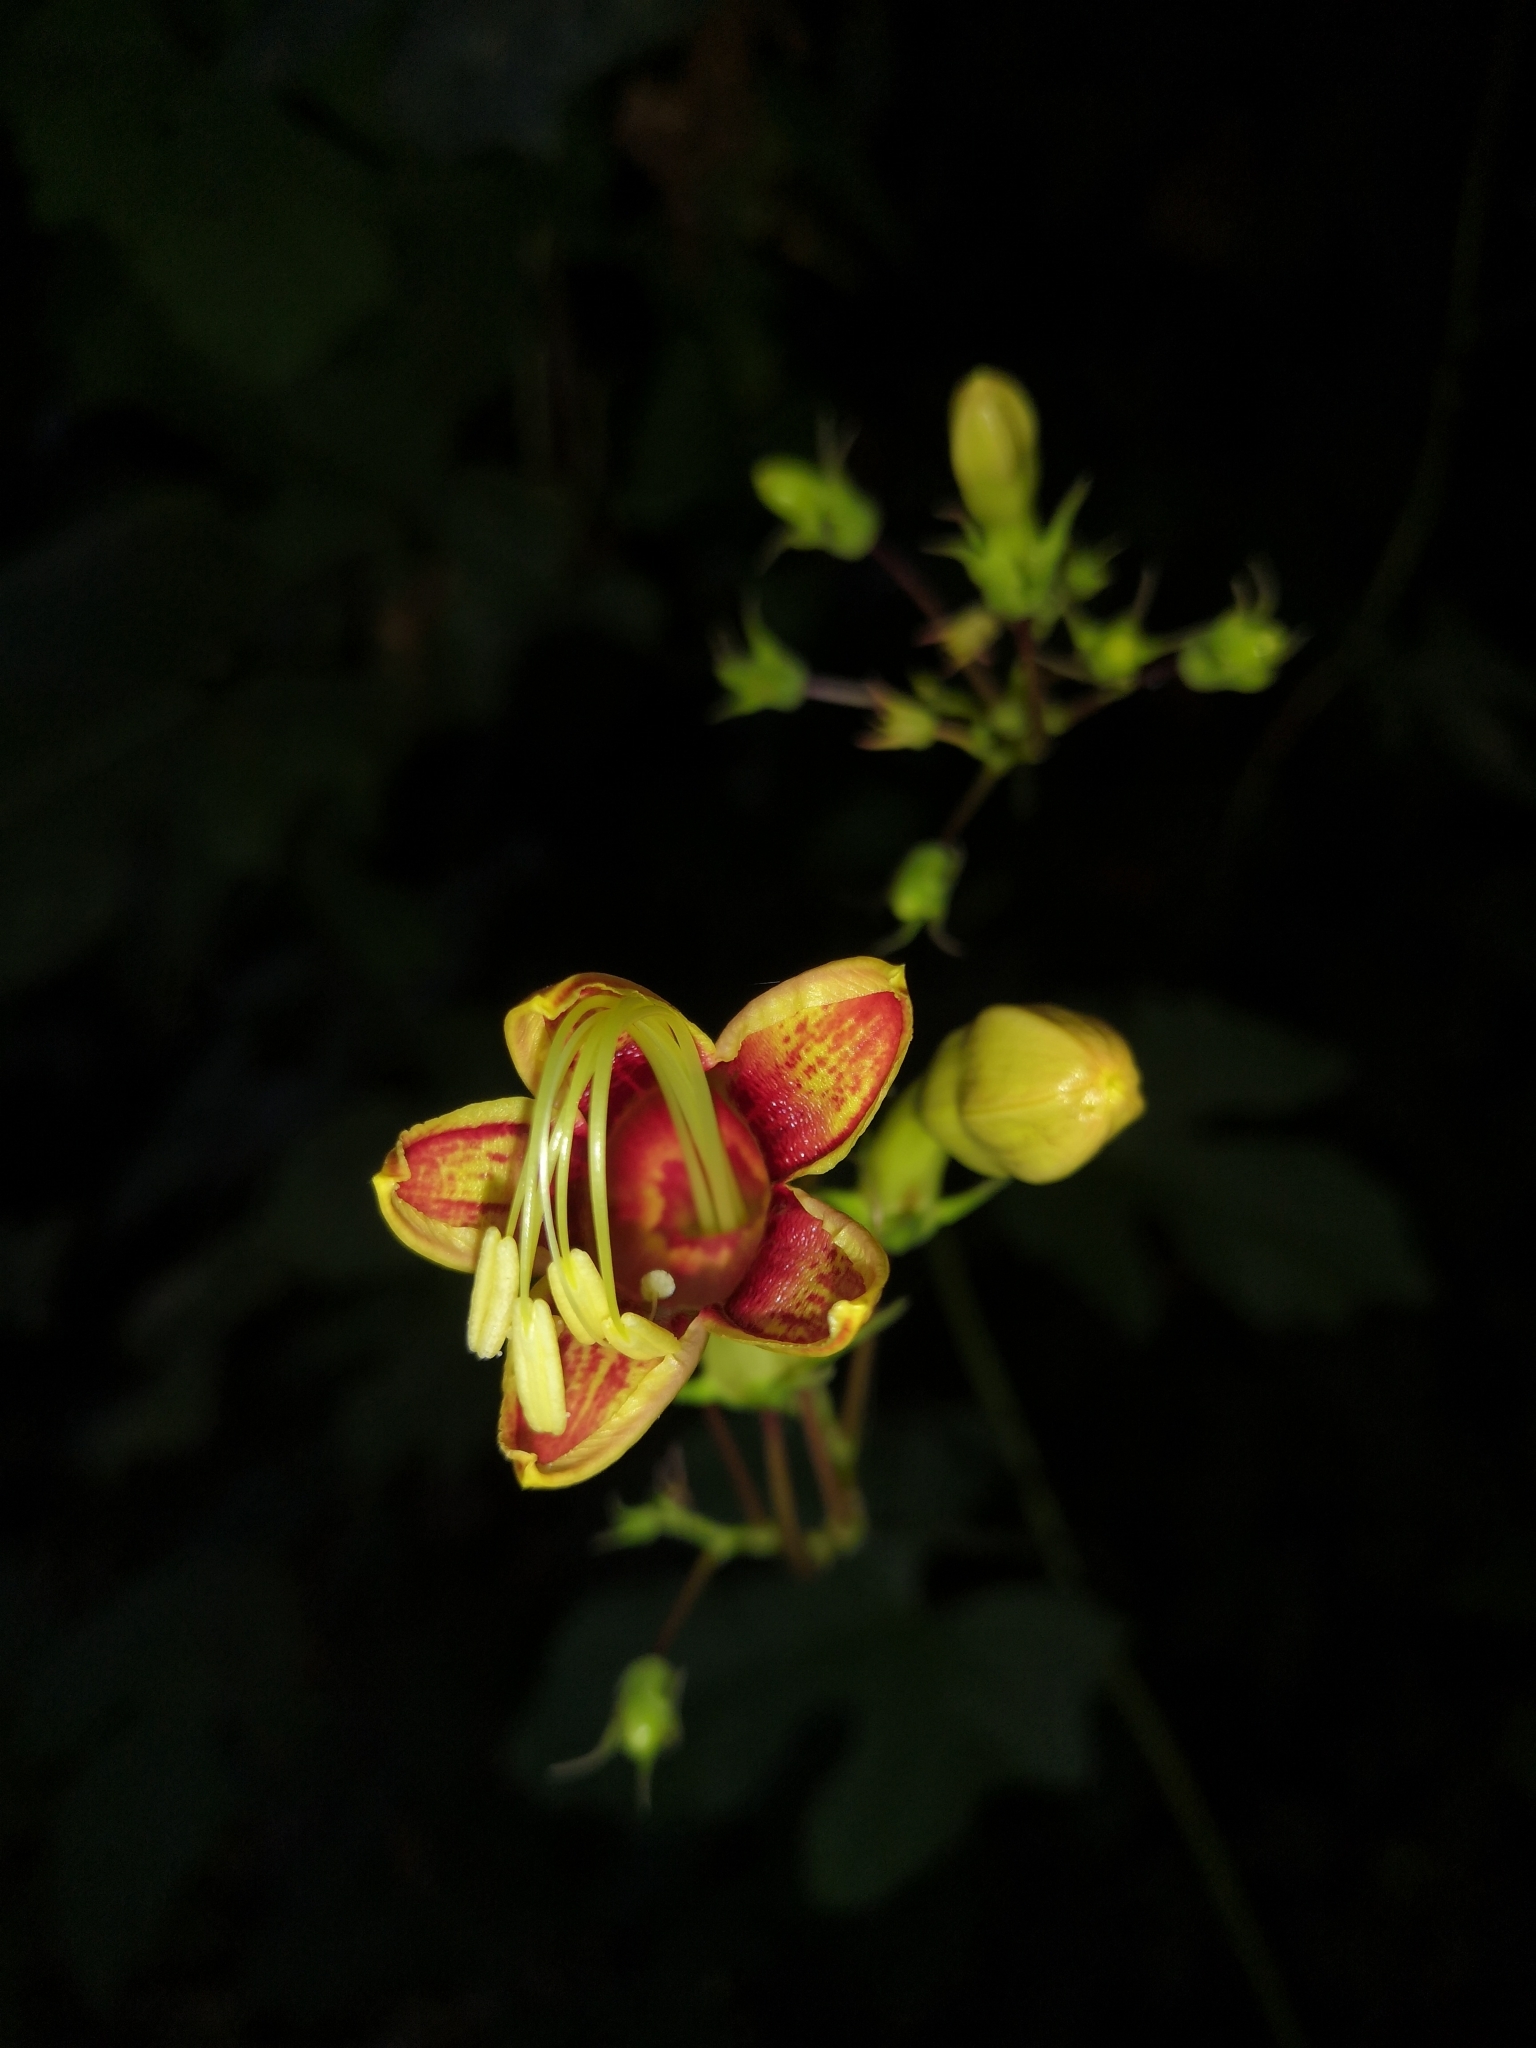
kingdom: Plantae
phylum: Tracheophyta
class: Magnoliopsida
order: Solanales
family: Convolvulaceae
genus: Ipomoea
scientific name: Ipomoea neei
